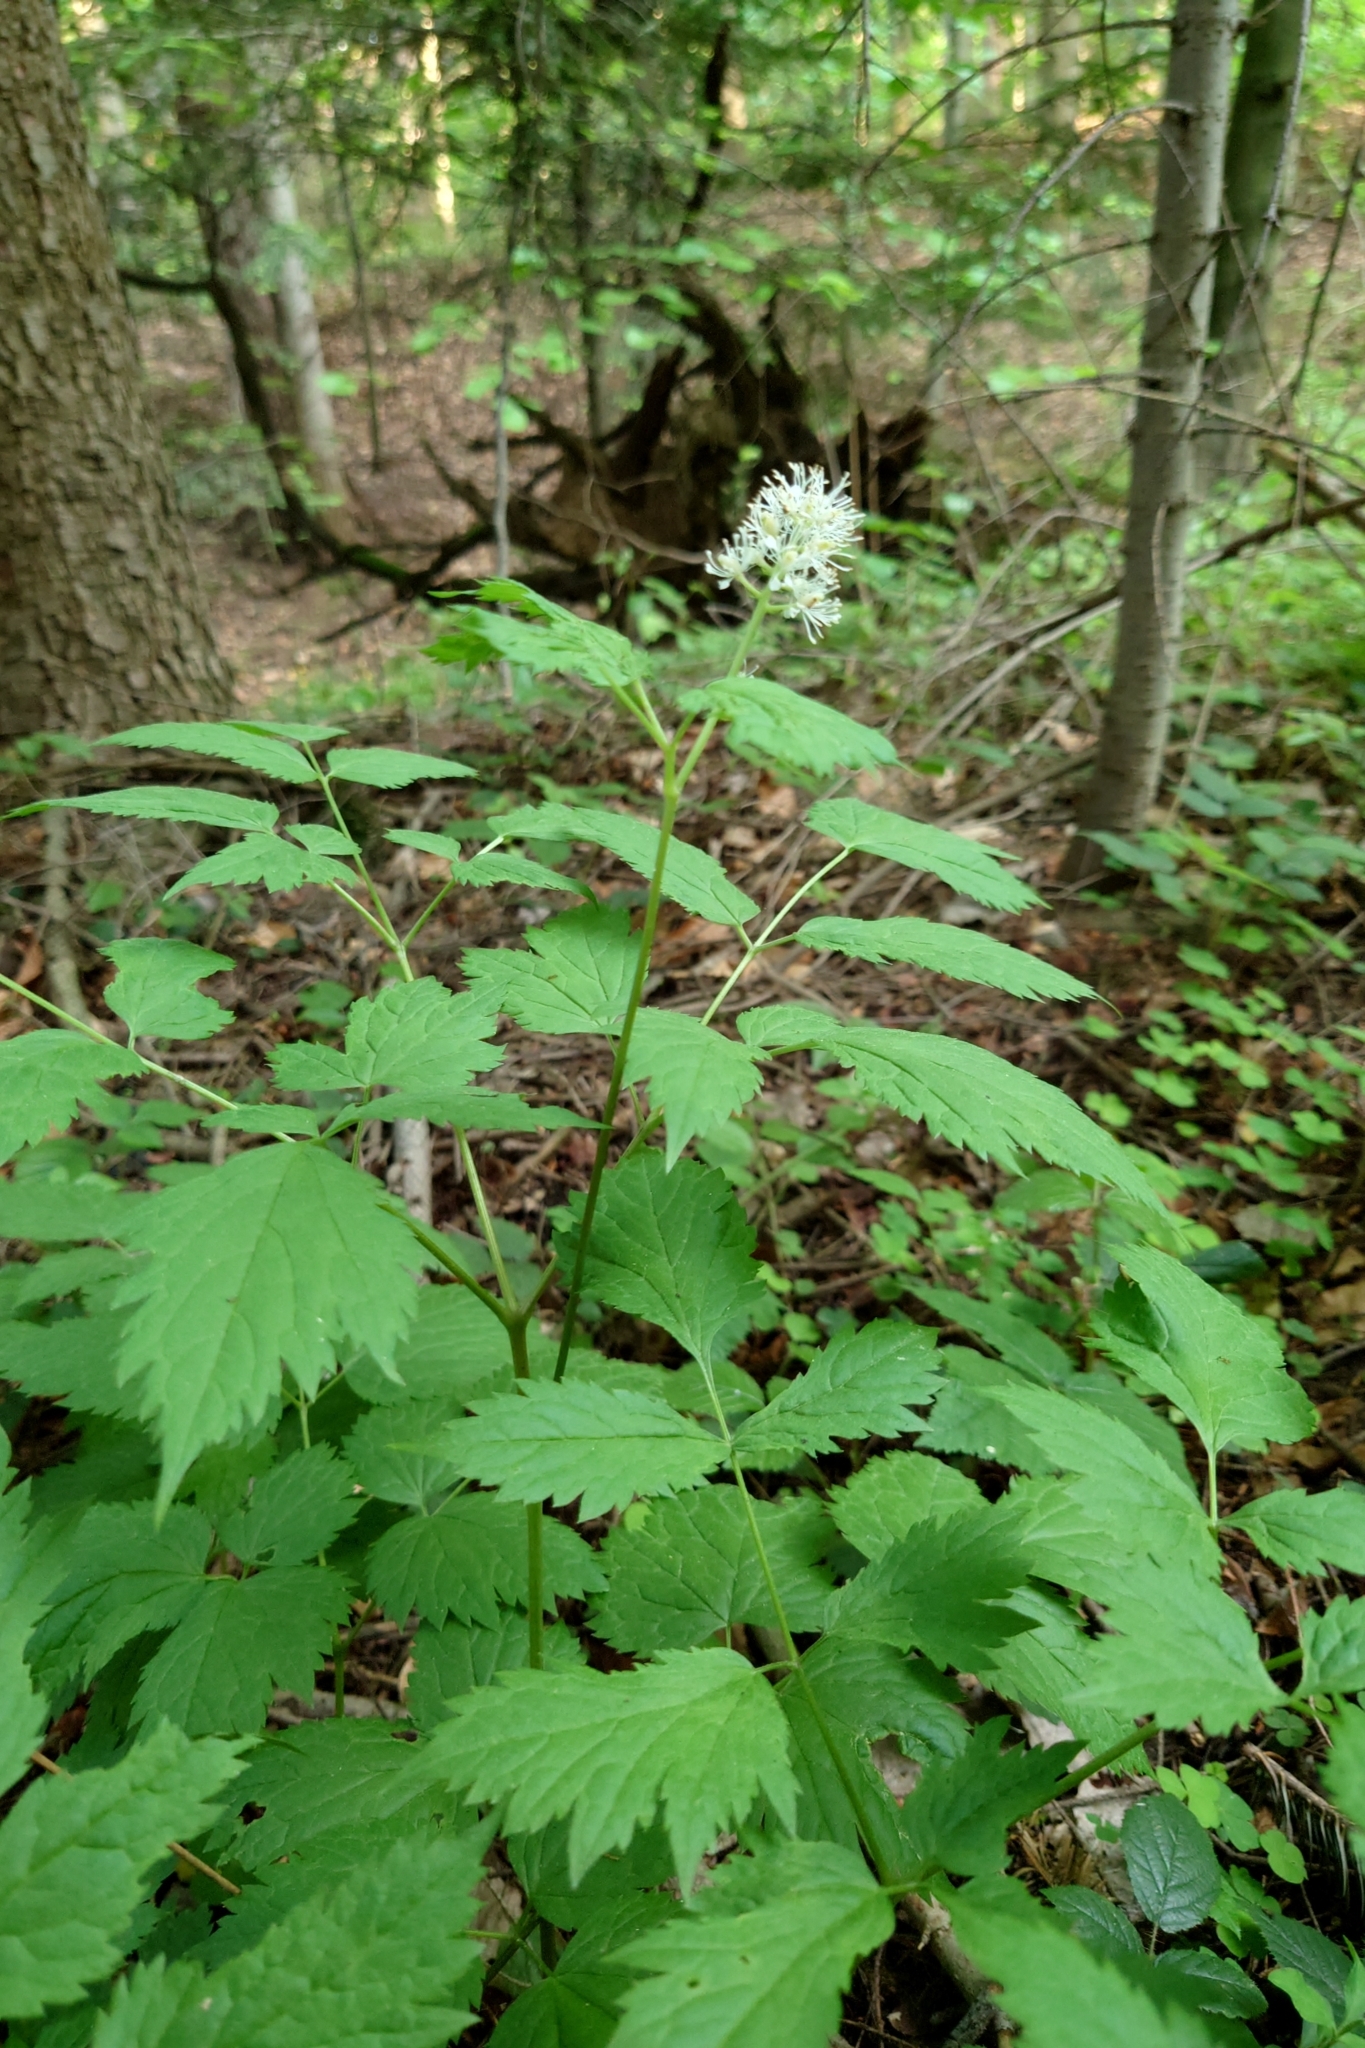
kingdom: Plantae
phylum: Tracheophyta
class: Magnoliopsida
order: Ranunculales
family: Ranunculaceae
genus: Actaea
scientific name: Actaea spicata
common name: Baneberry
